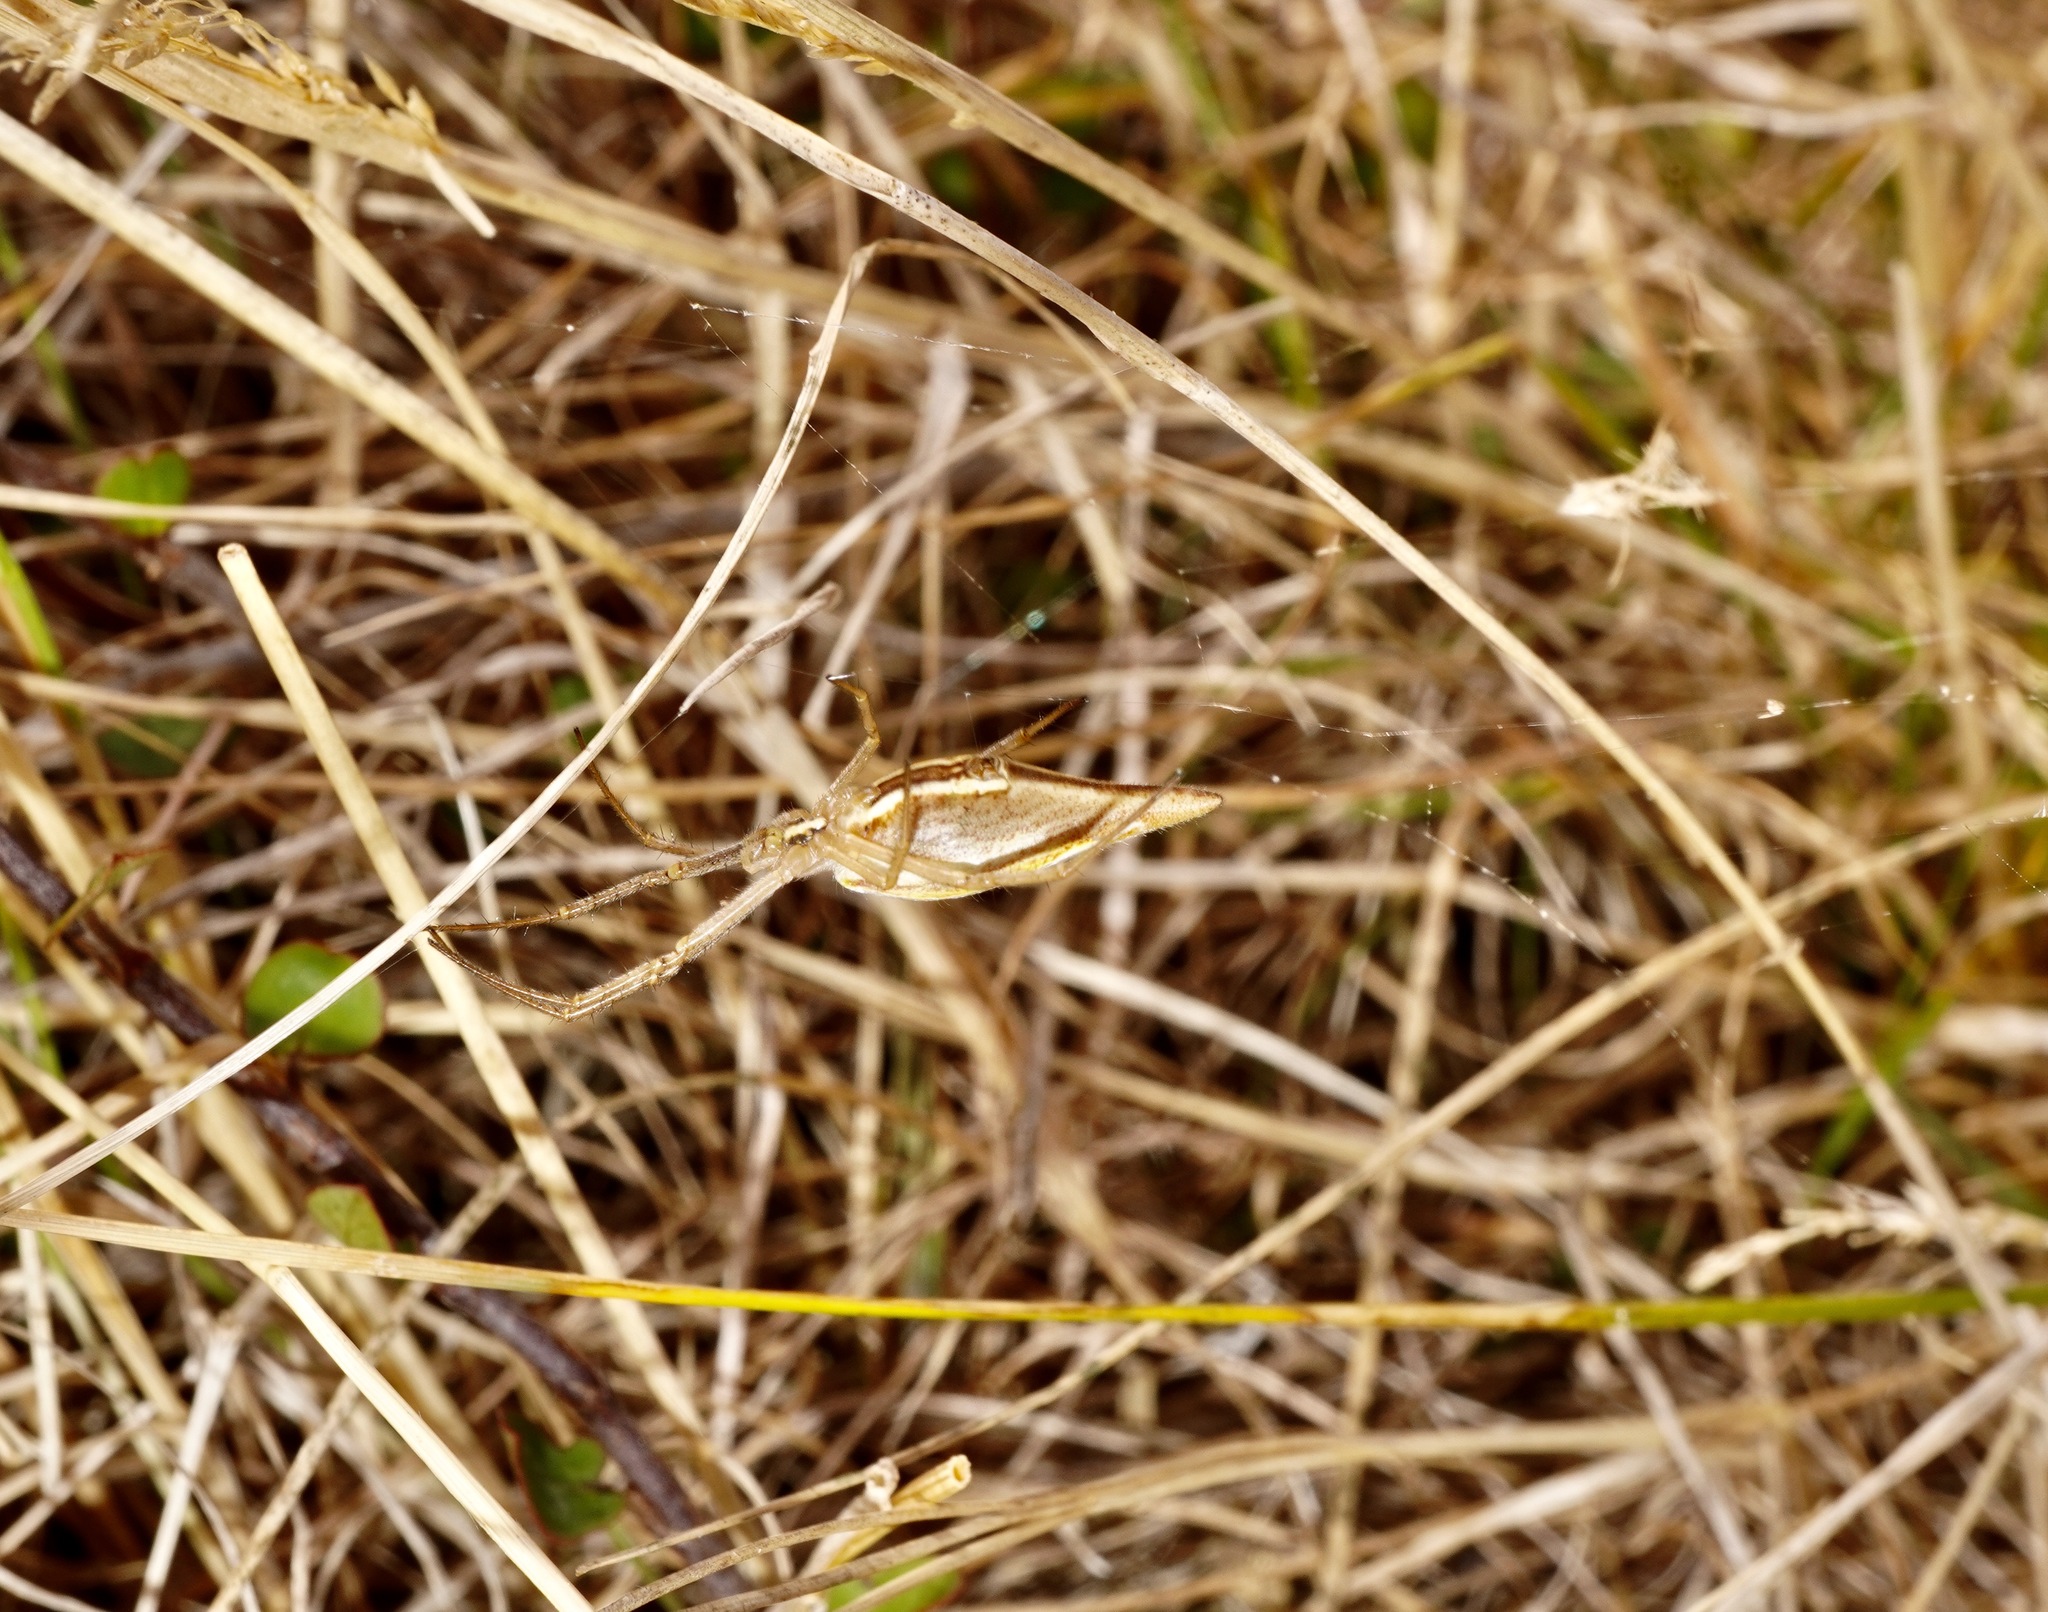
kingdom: Animalia
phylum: Arthropoda
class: Arachnida
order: Araneae
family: Araneidae
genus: Argiope
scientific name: Argiope protensa
